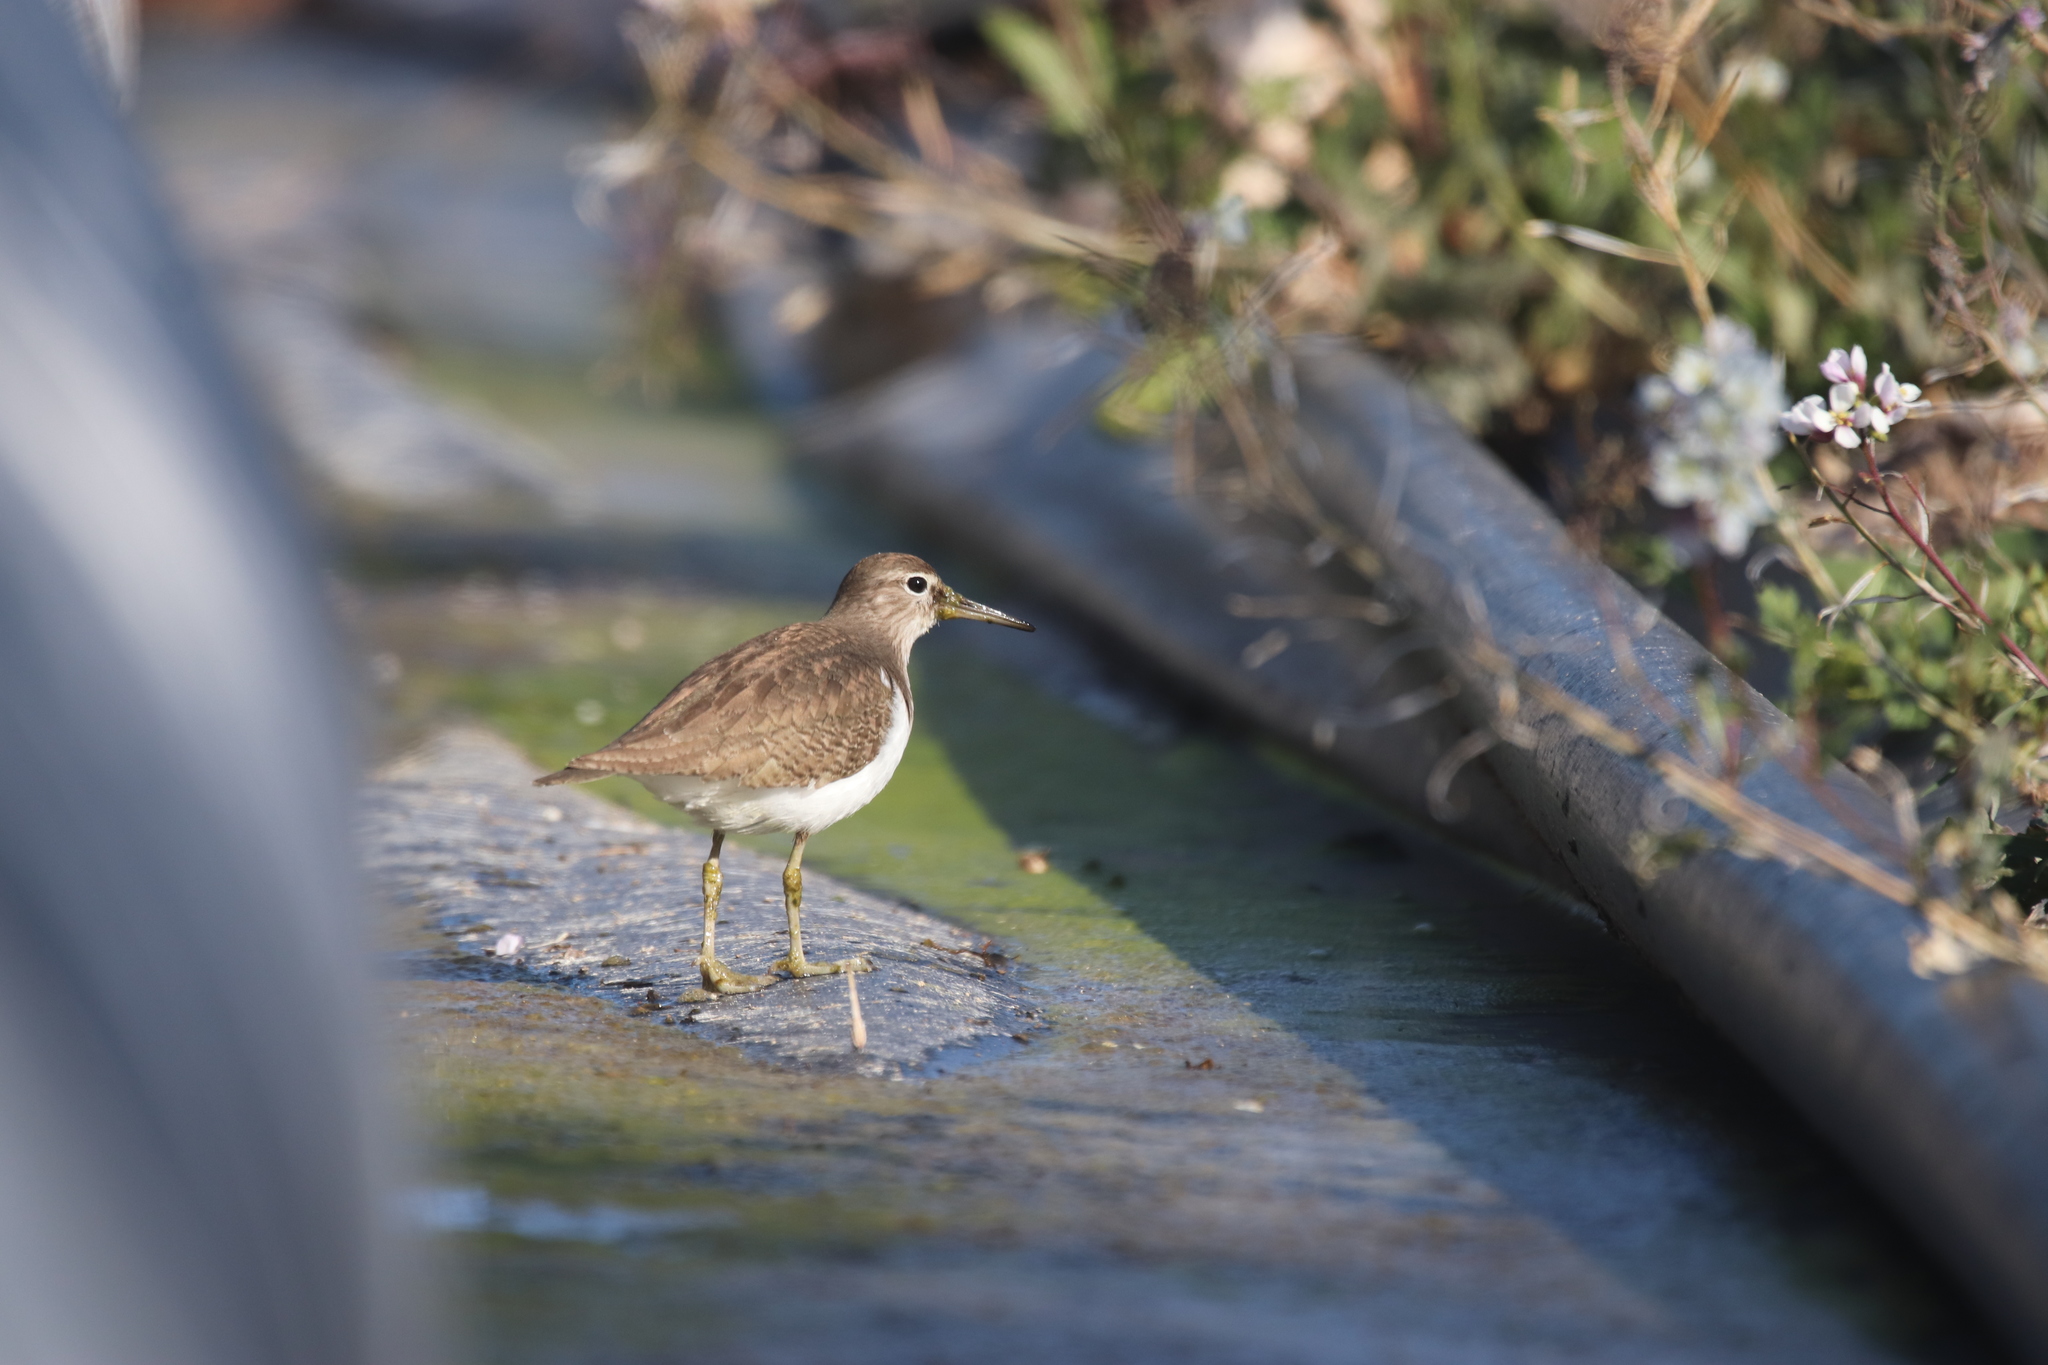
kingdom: Animalia
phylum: Chordata
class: Aves
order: Charadriiformes
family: Scolopacidae
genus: Actitis
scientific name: Actitis hypoleucos
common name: Common sandpiper
